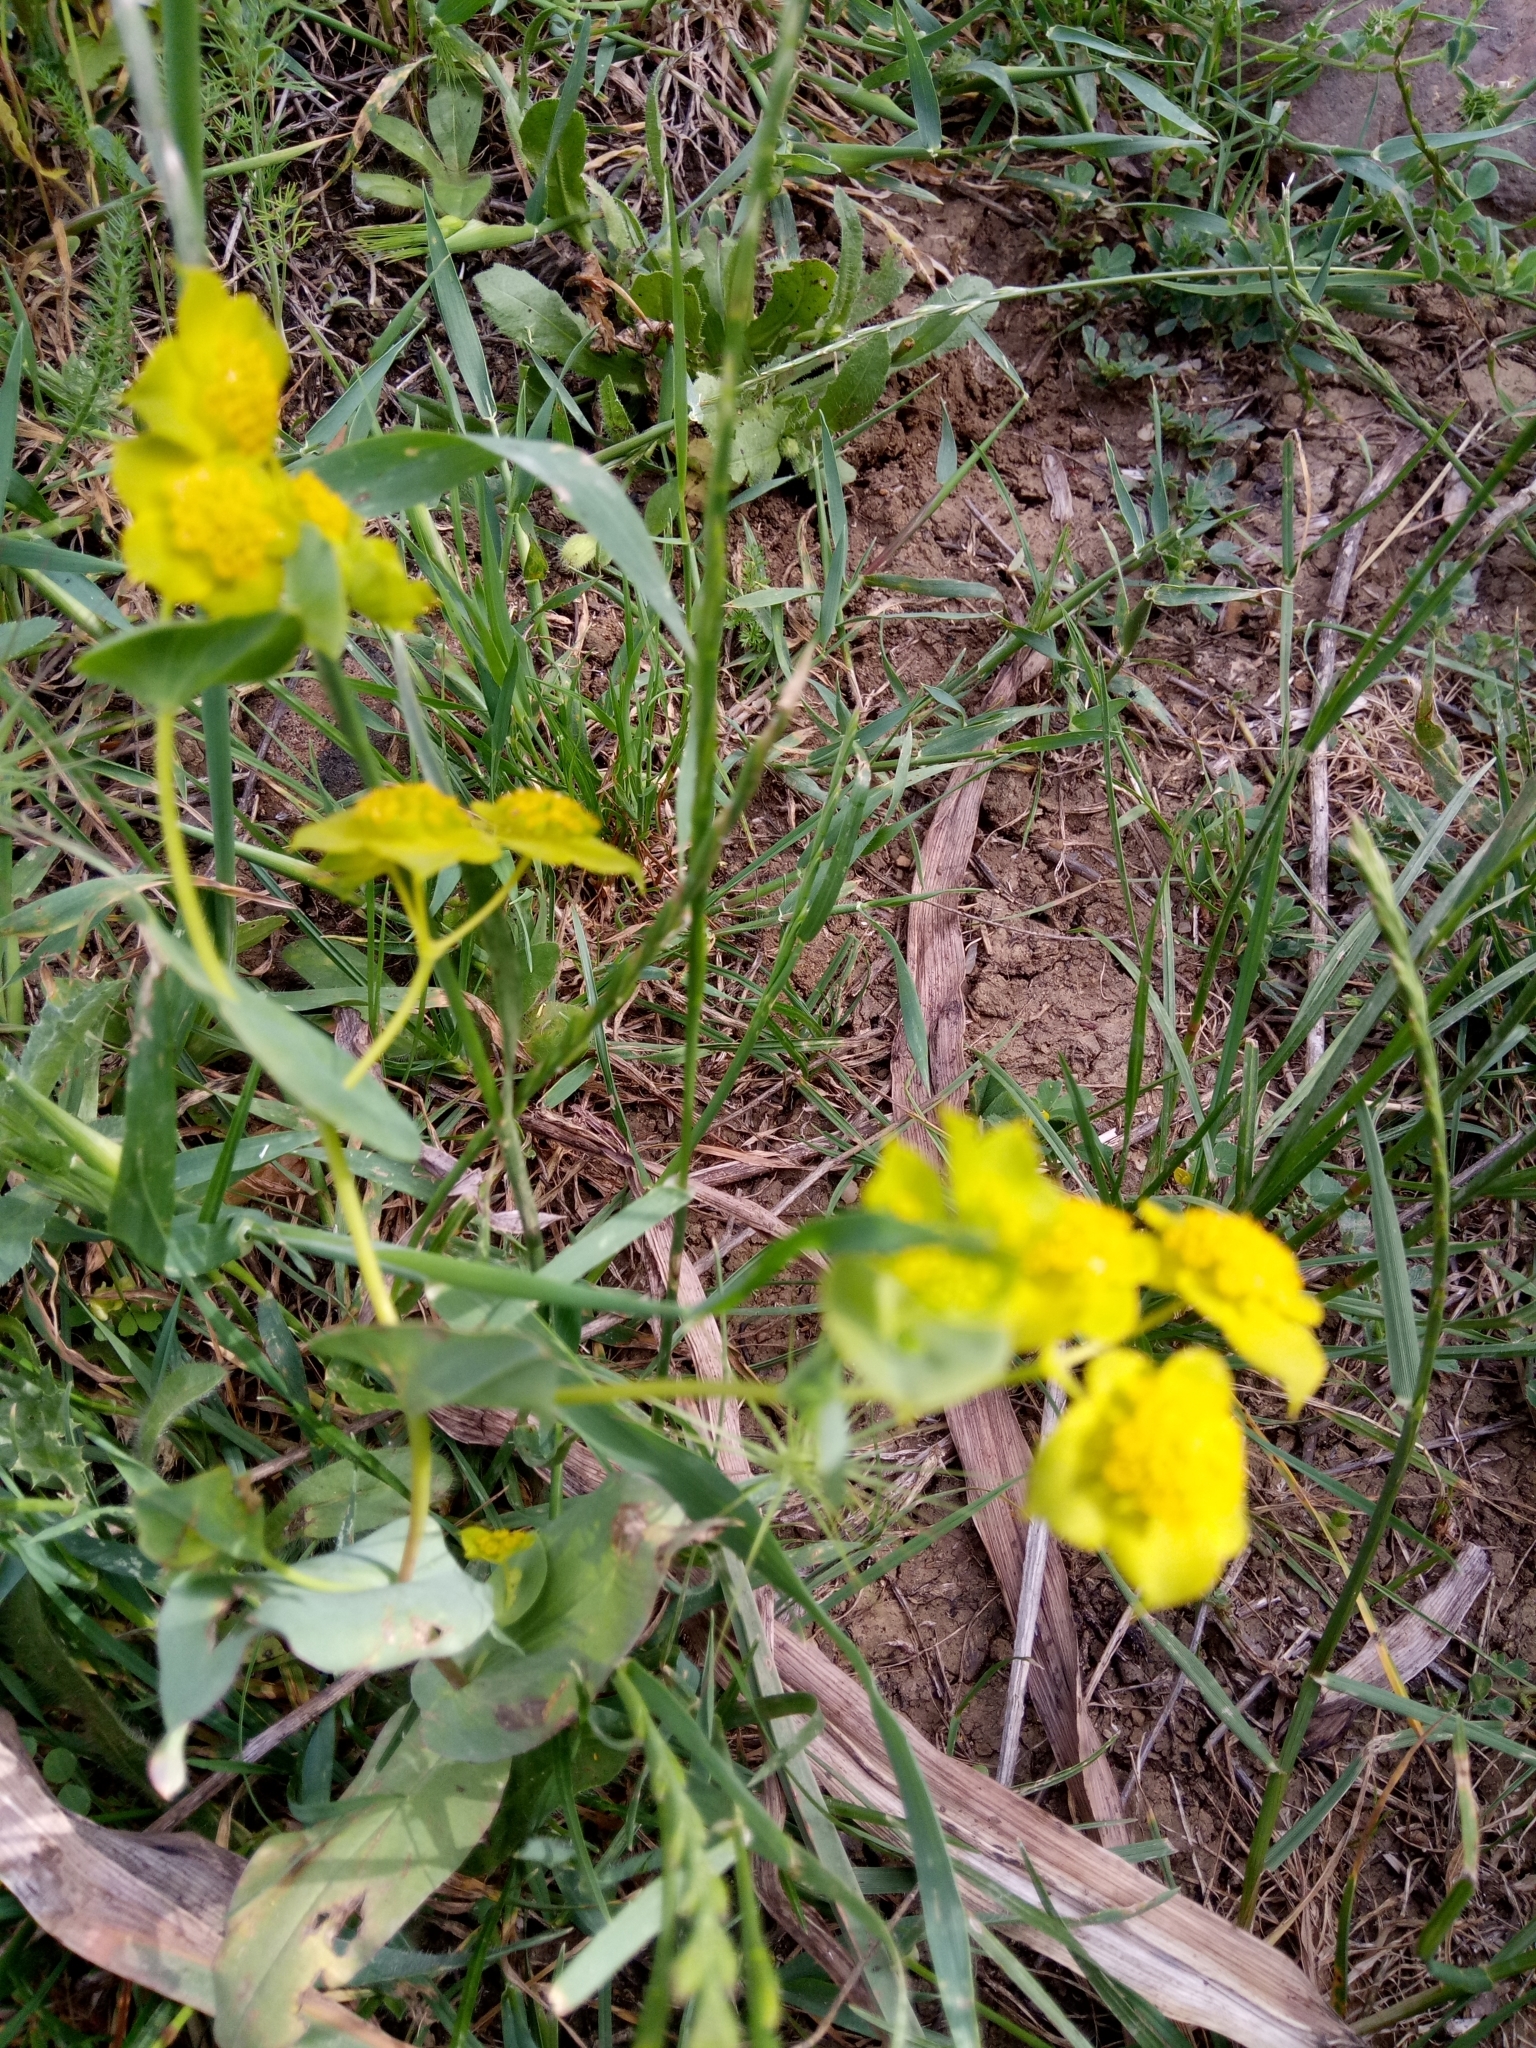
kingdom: Plantae
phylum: Tracheophyta
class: Magnoliopsida
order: Apiales
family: Apiaceae
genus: Bupleurum
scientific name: Bupleurum subovatum
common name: False thorow-wax
